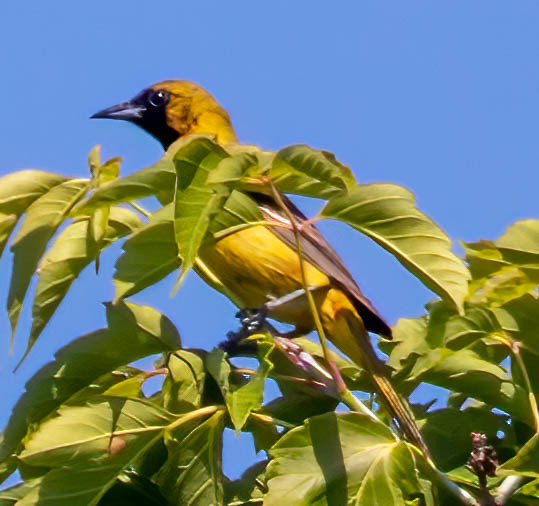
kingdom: Animalia
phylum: Chordata
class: Aves
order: Passeriformes
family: Icteridae
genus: Icterus
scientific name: Icterus spurius
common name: Orchard oriole
